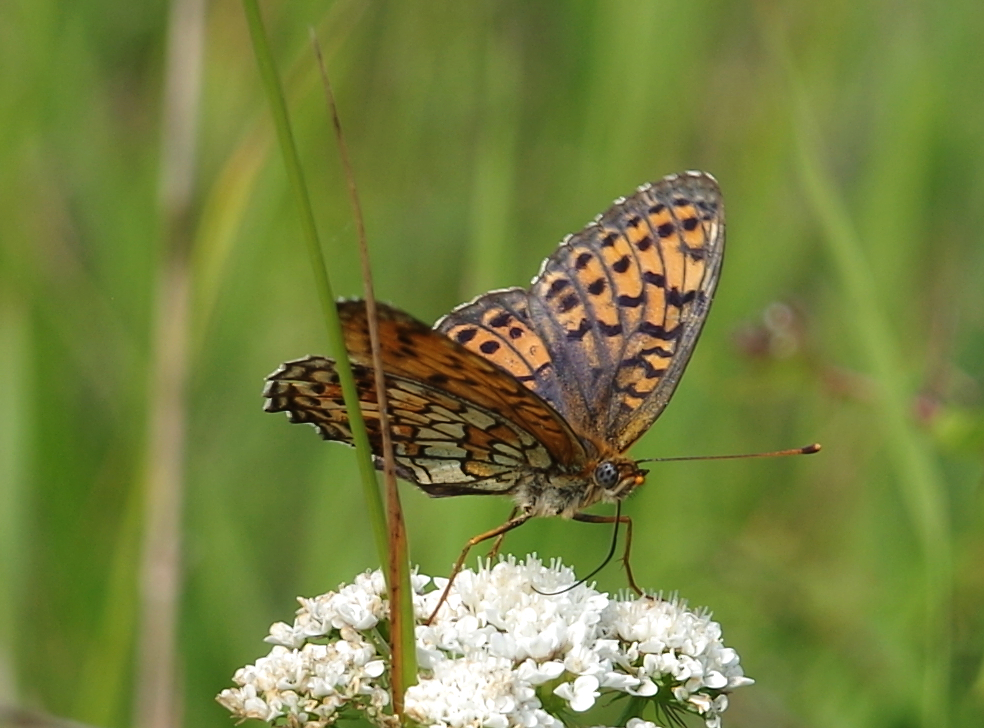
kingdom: Animalia
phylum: Arthropoda
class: Insecta
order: Lepidoptera
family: Nymphalidae
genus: Brenthis
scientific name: Brenthis hecate
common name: Twin-spot fritillary
